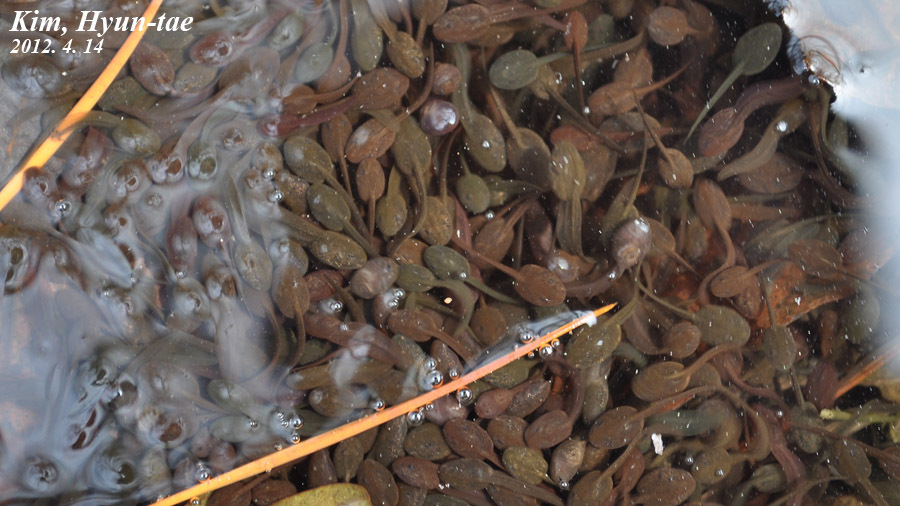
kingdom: Animalia
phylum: Chordata
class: Amphibia
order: Anura
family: Ranidae
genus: Rana
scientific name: Rana uenoi
